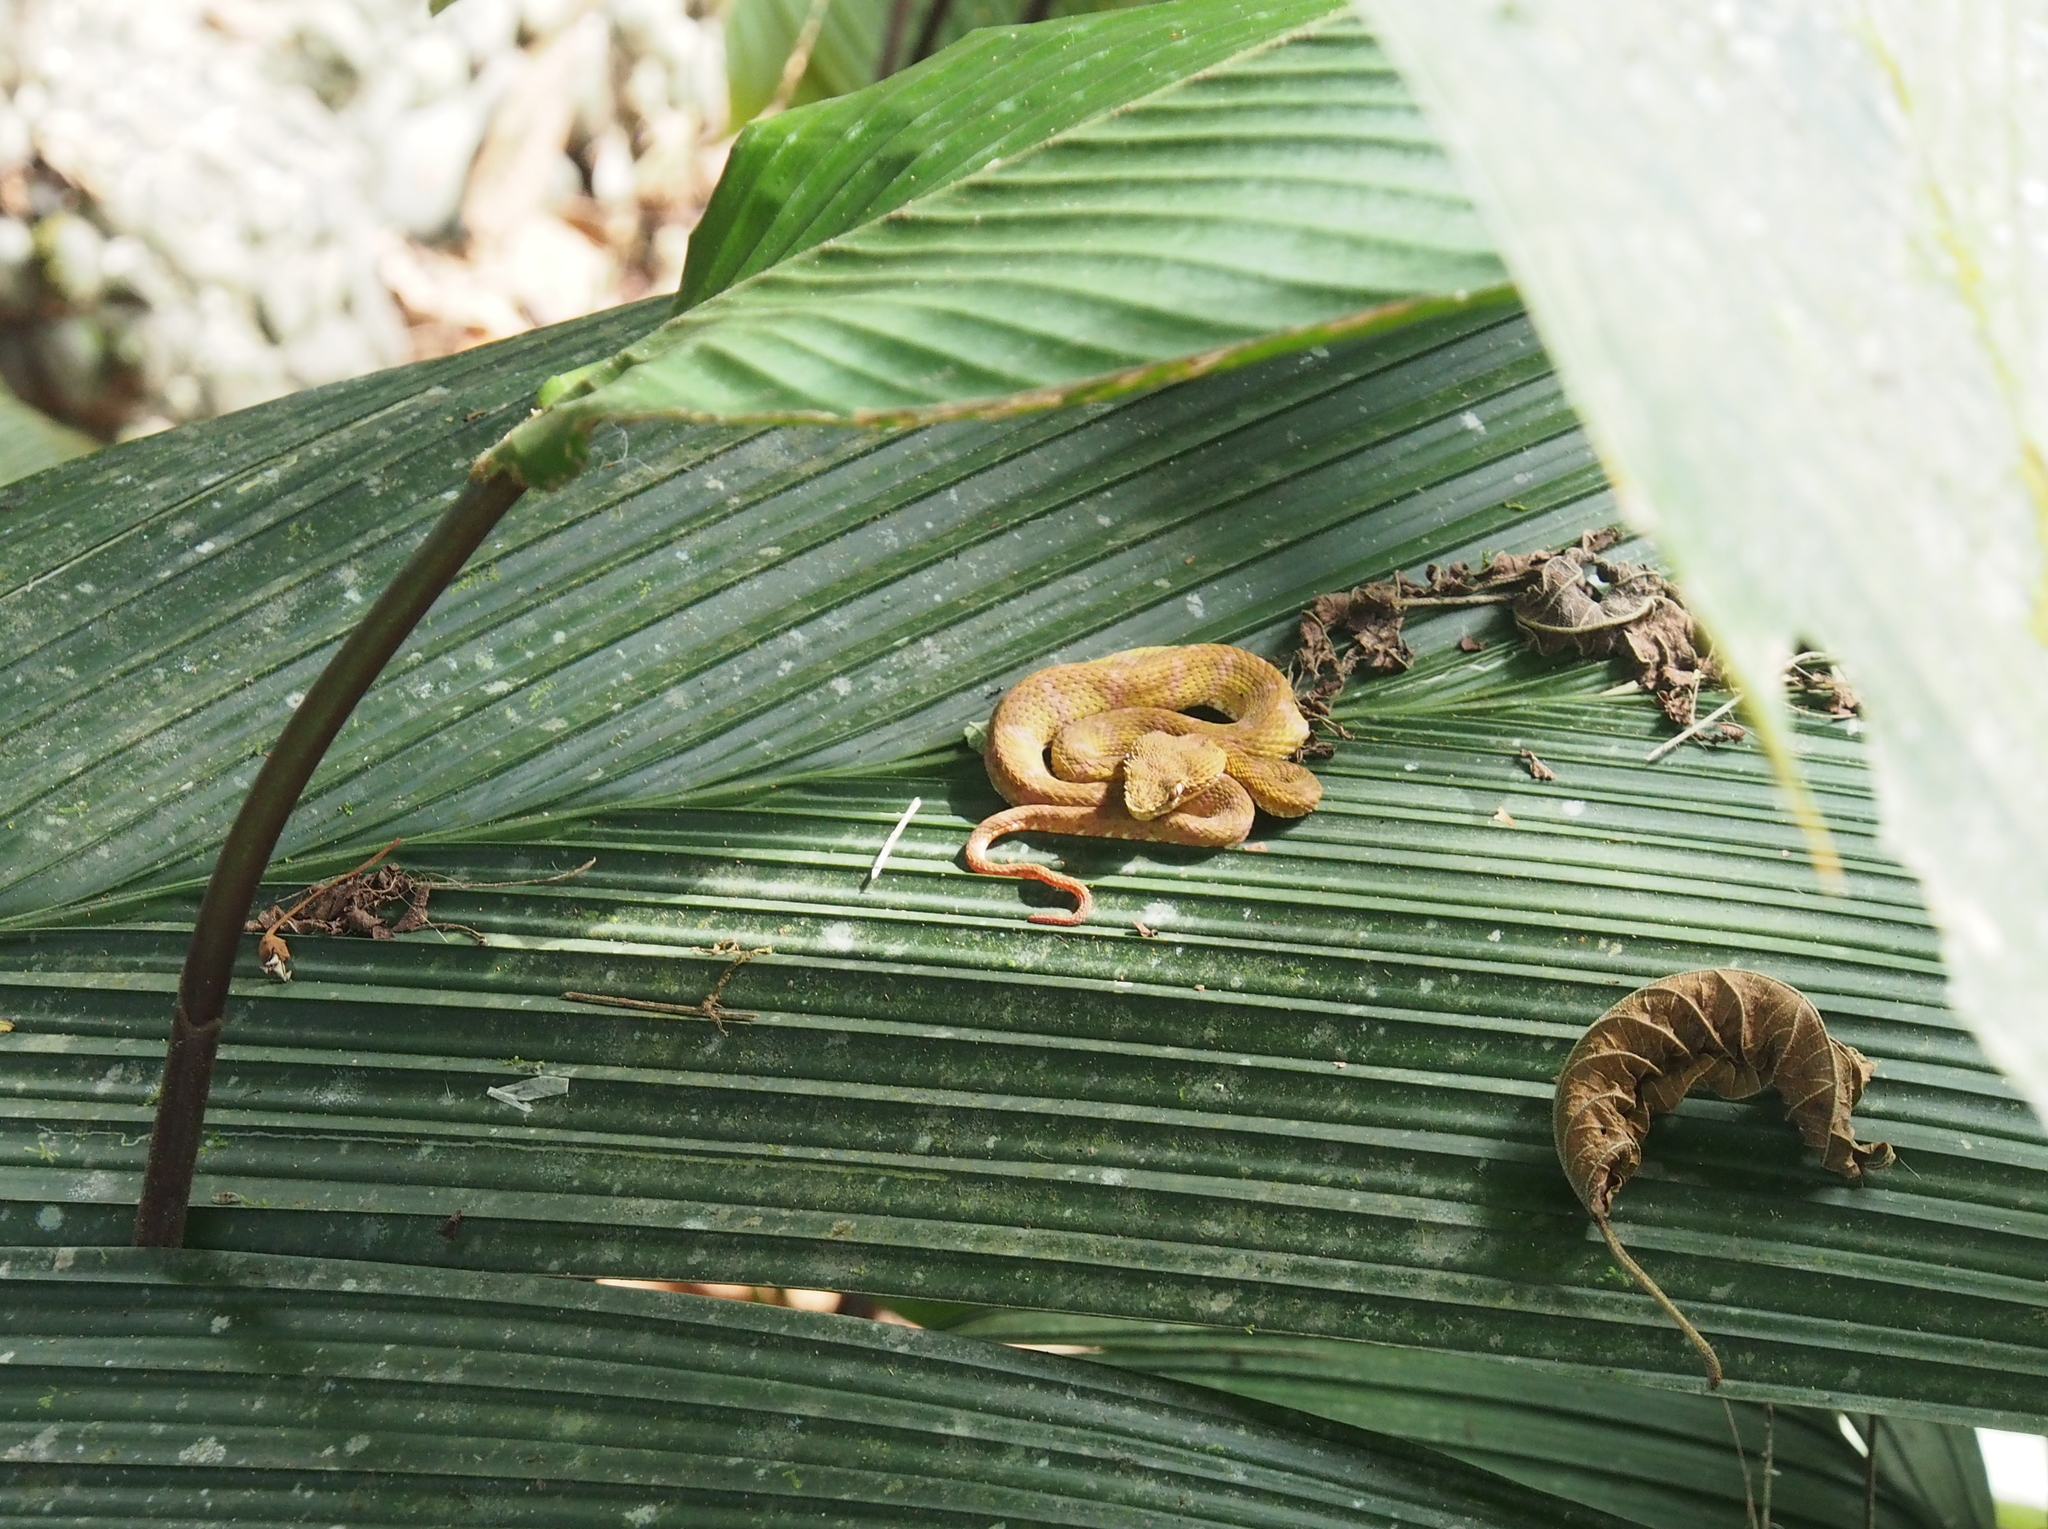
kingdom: Animalia
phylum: Chordata
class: Squamata
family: Viperidae
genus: Bothriechis
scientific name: Bothriechis schlegelii
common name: Eyelash viper
